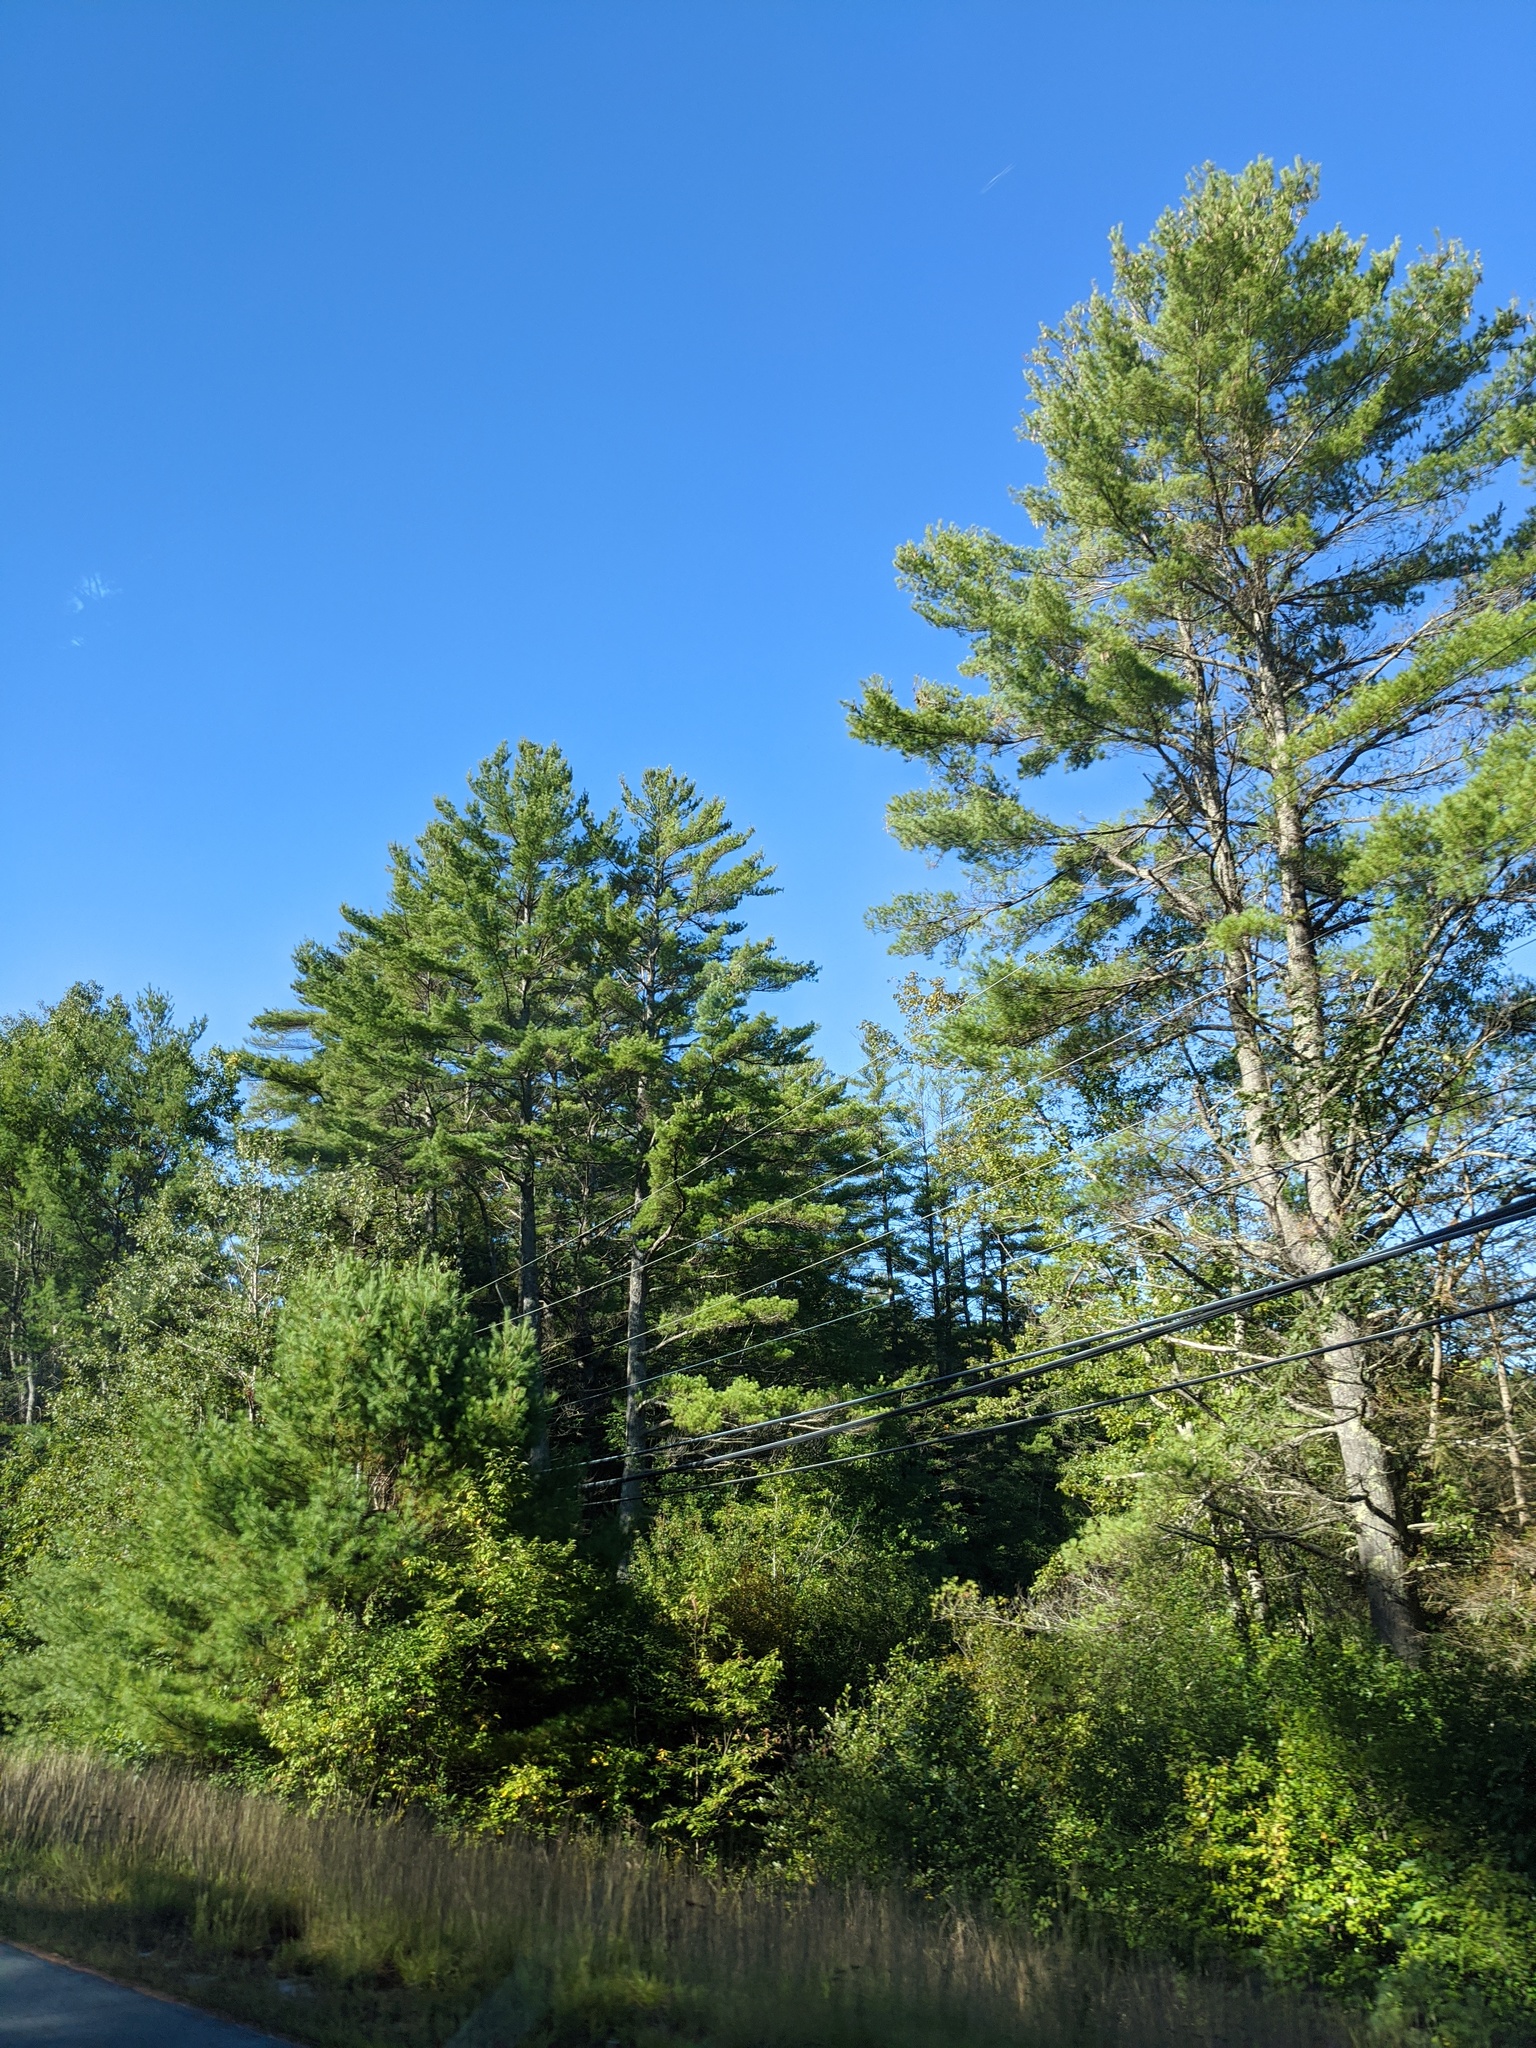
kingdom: Plantae
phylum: Tracheophyta
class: Pinopsida
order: Pinales
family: Pinaceae
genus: Pinus
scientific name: Pinus strobus
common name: Weymouth pine
